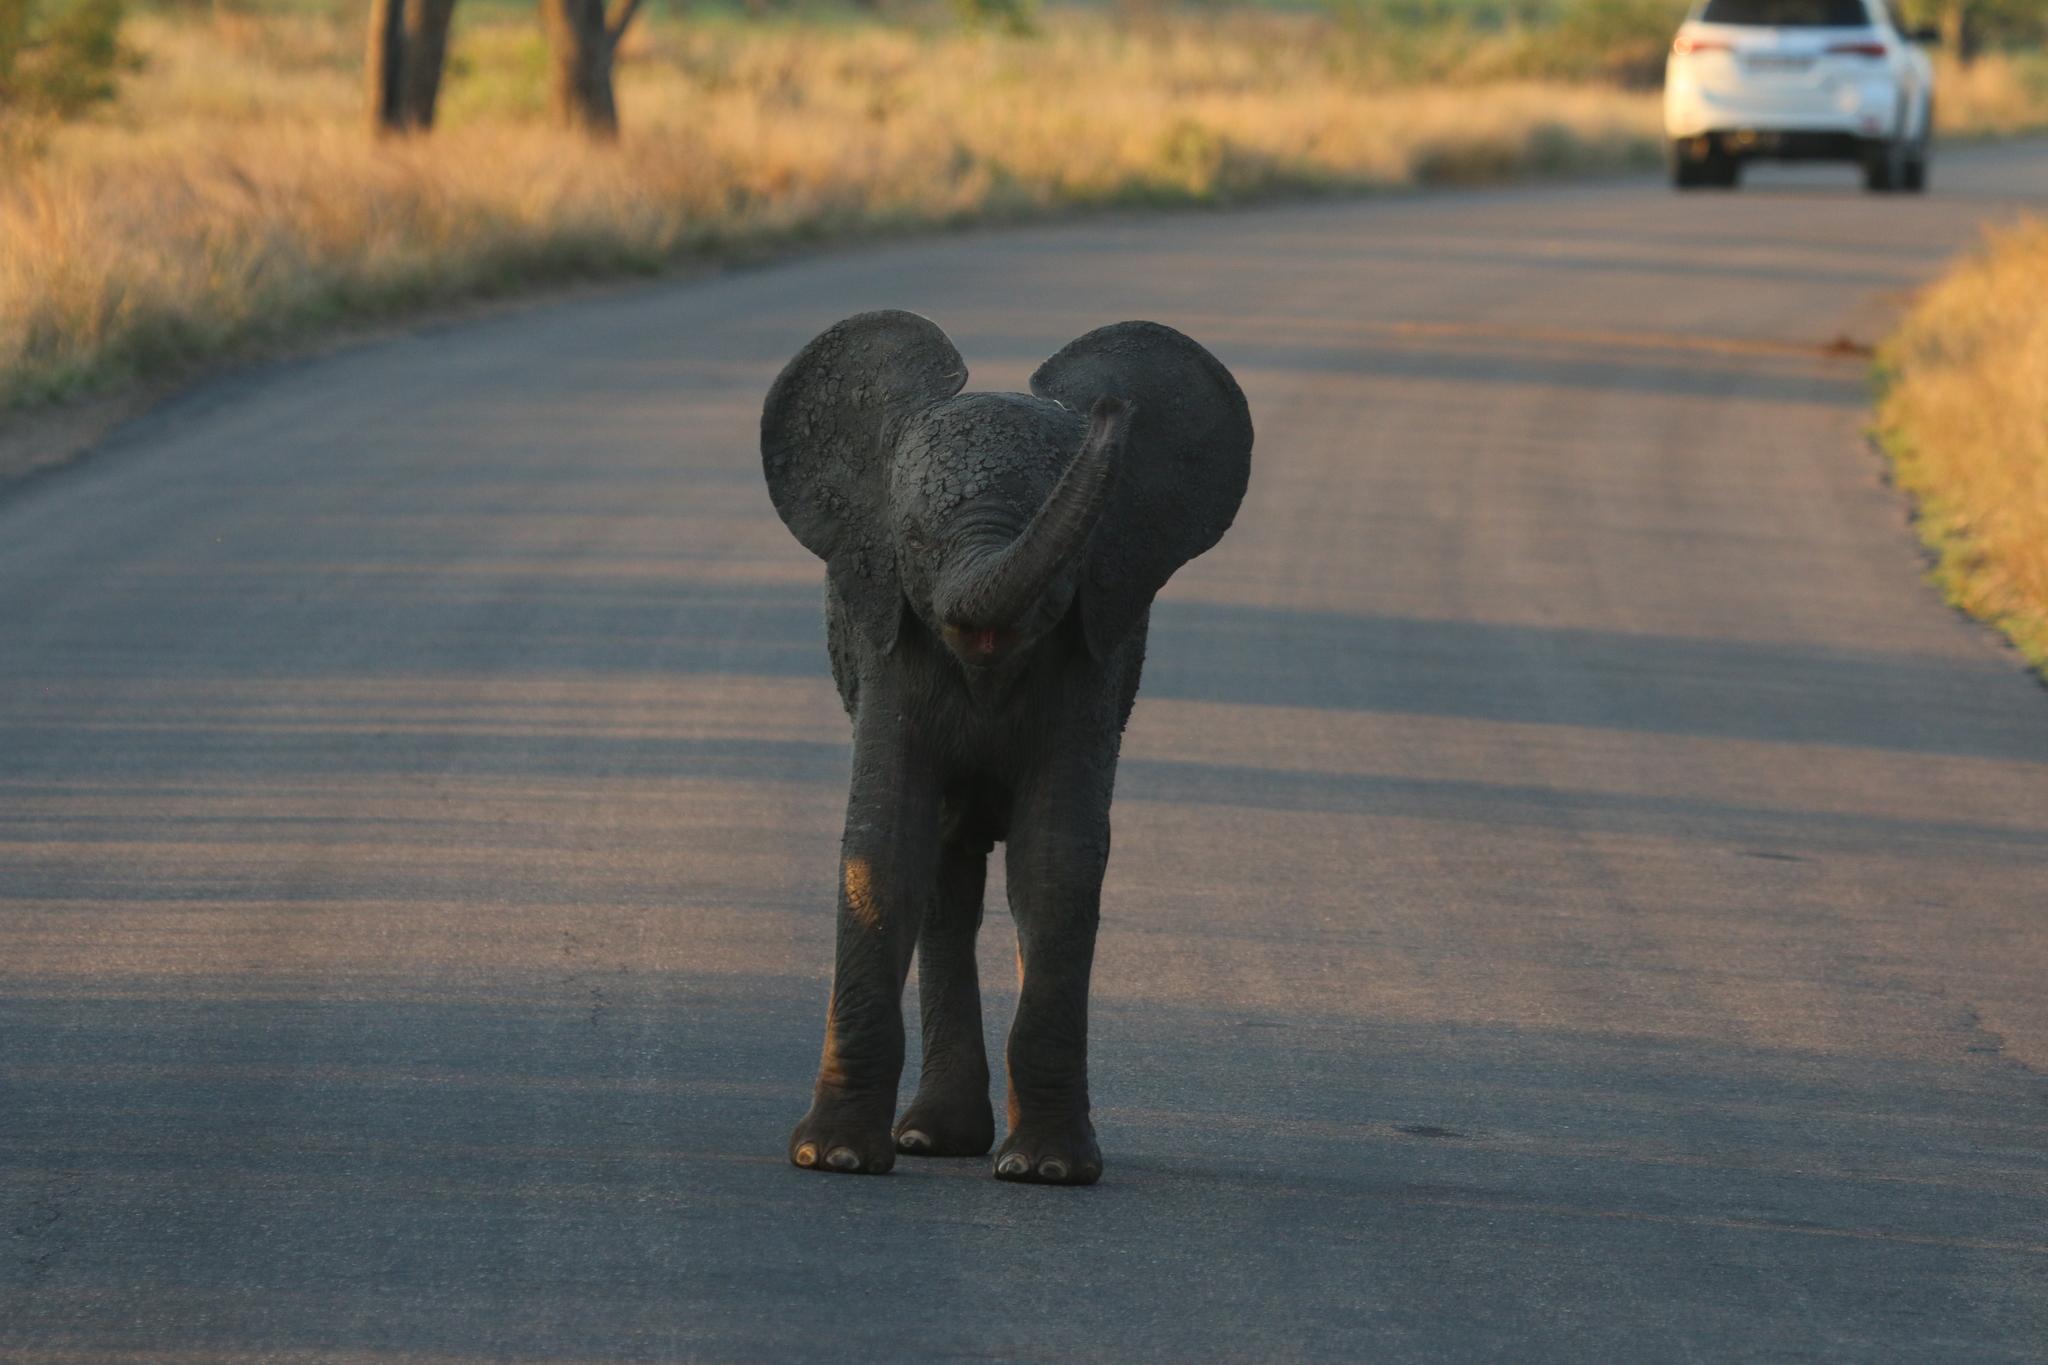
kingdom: Animalia
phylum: Chordata
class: Mammalia
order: Proboscidea
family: Elephantidae
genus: Loxodonta
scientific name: Loxodonta africana
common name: African elephant
